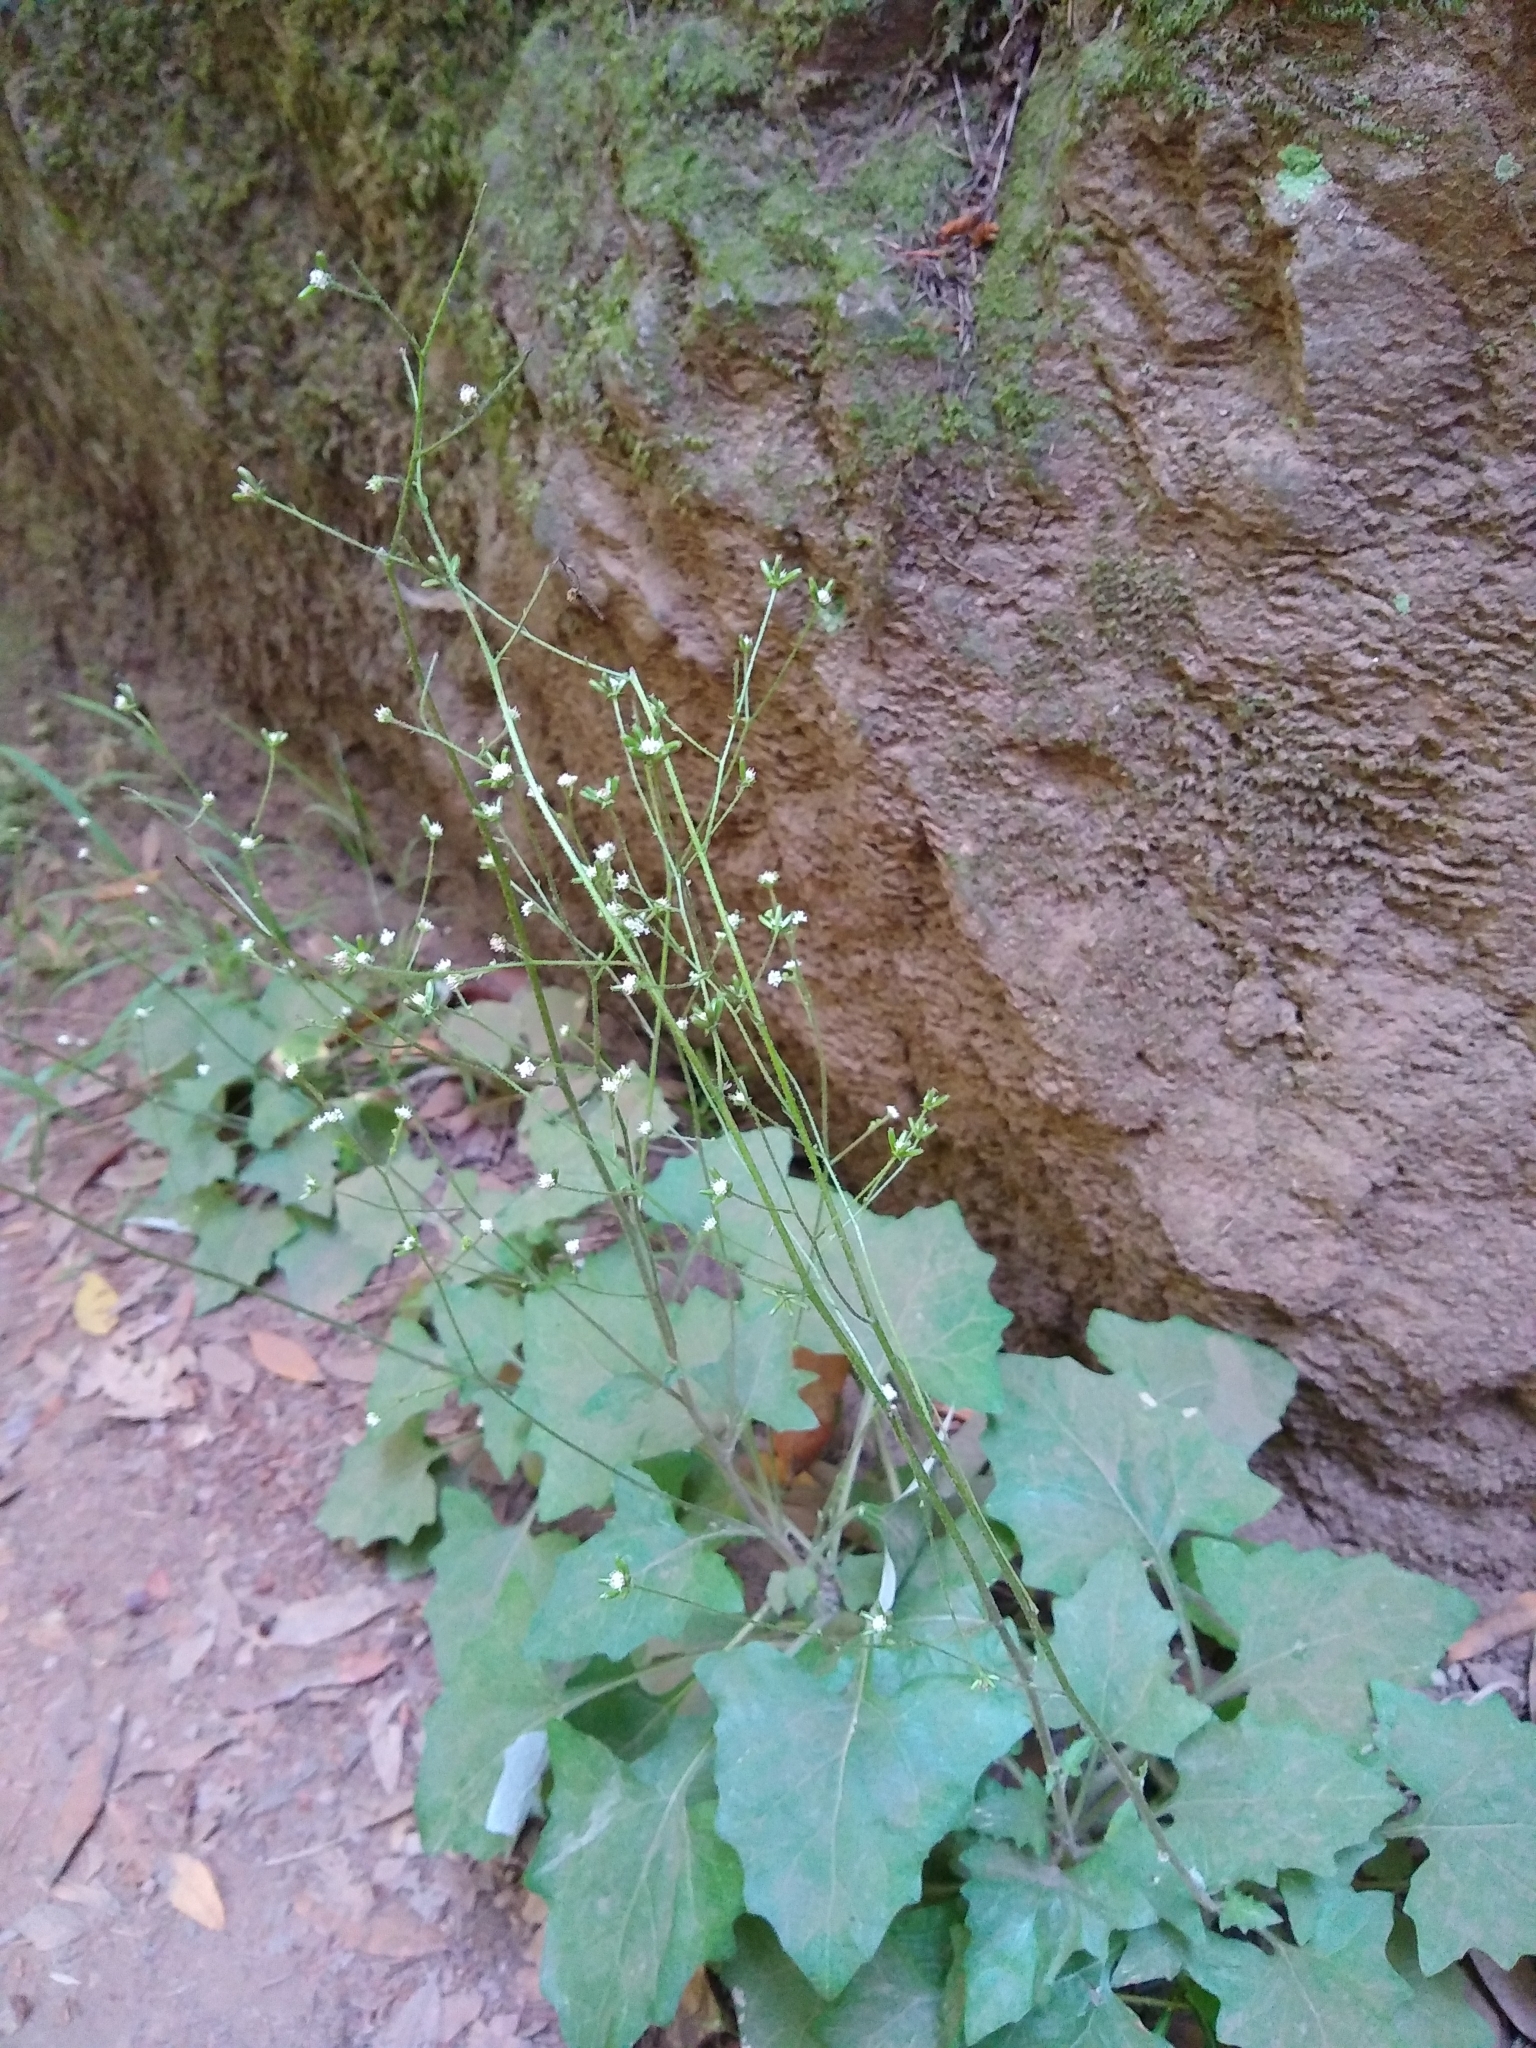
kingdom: Plantae
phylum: Tracheophyta
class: Magnoliopsida
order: Asterales
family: Asteraceae
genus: Adenocaulon
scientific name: Adenocaulon bicolor
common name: Trailplant
